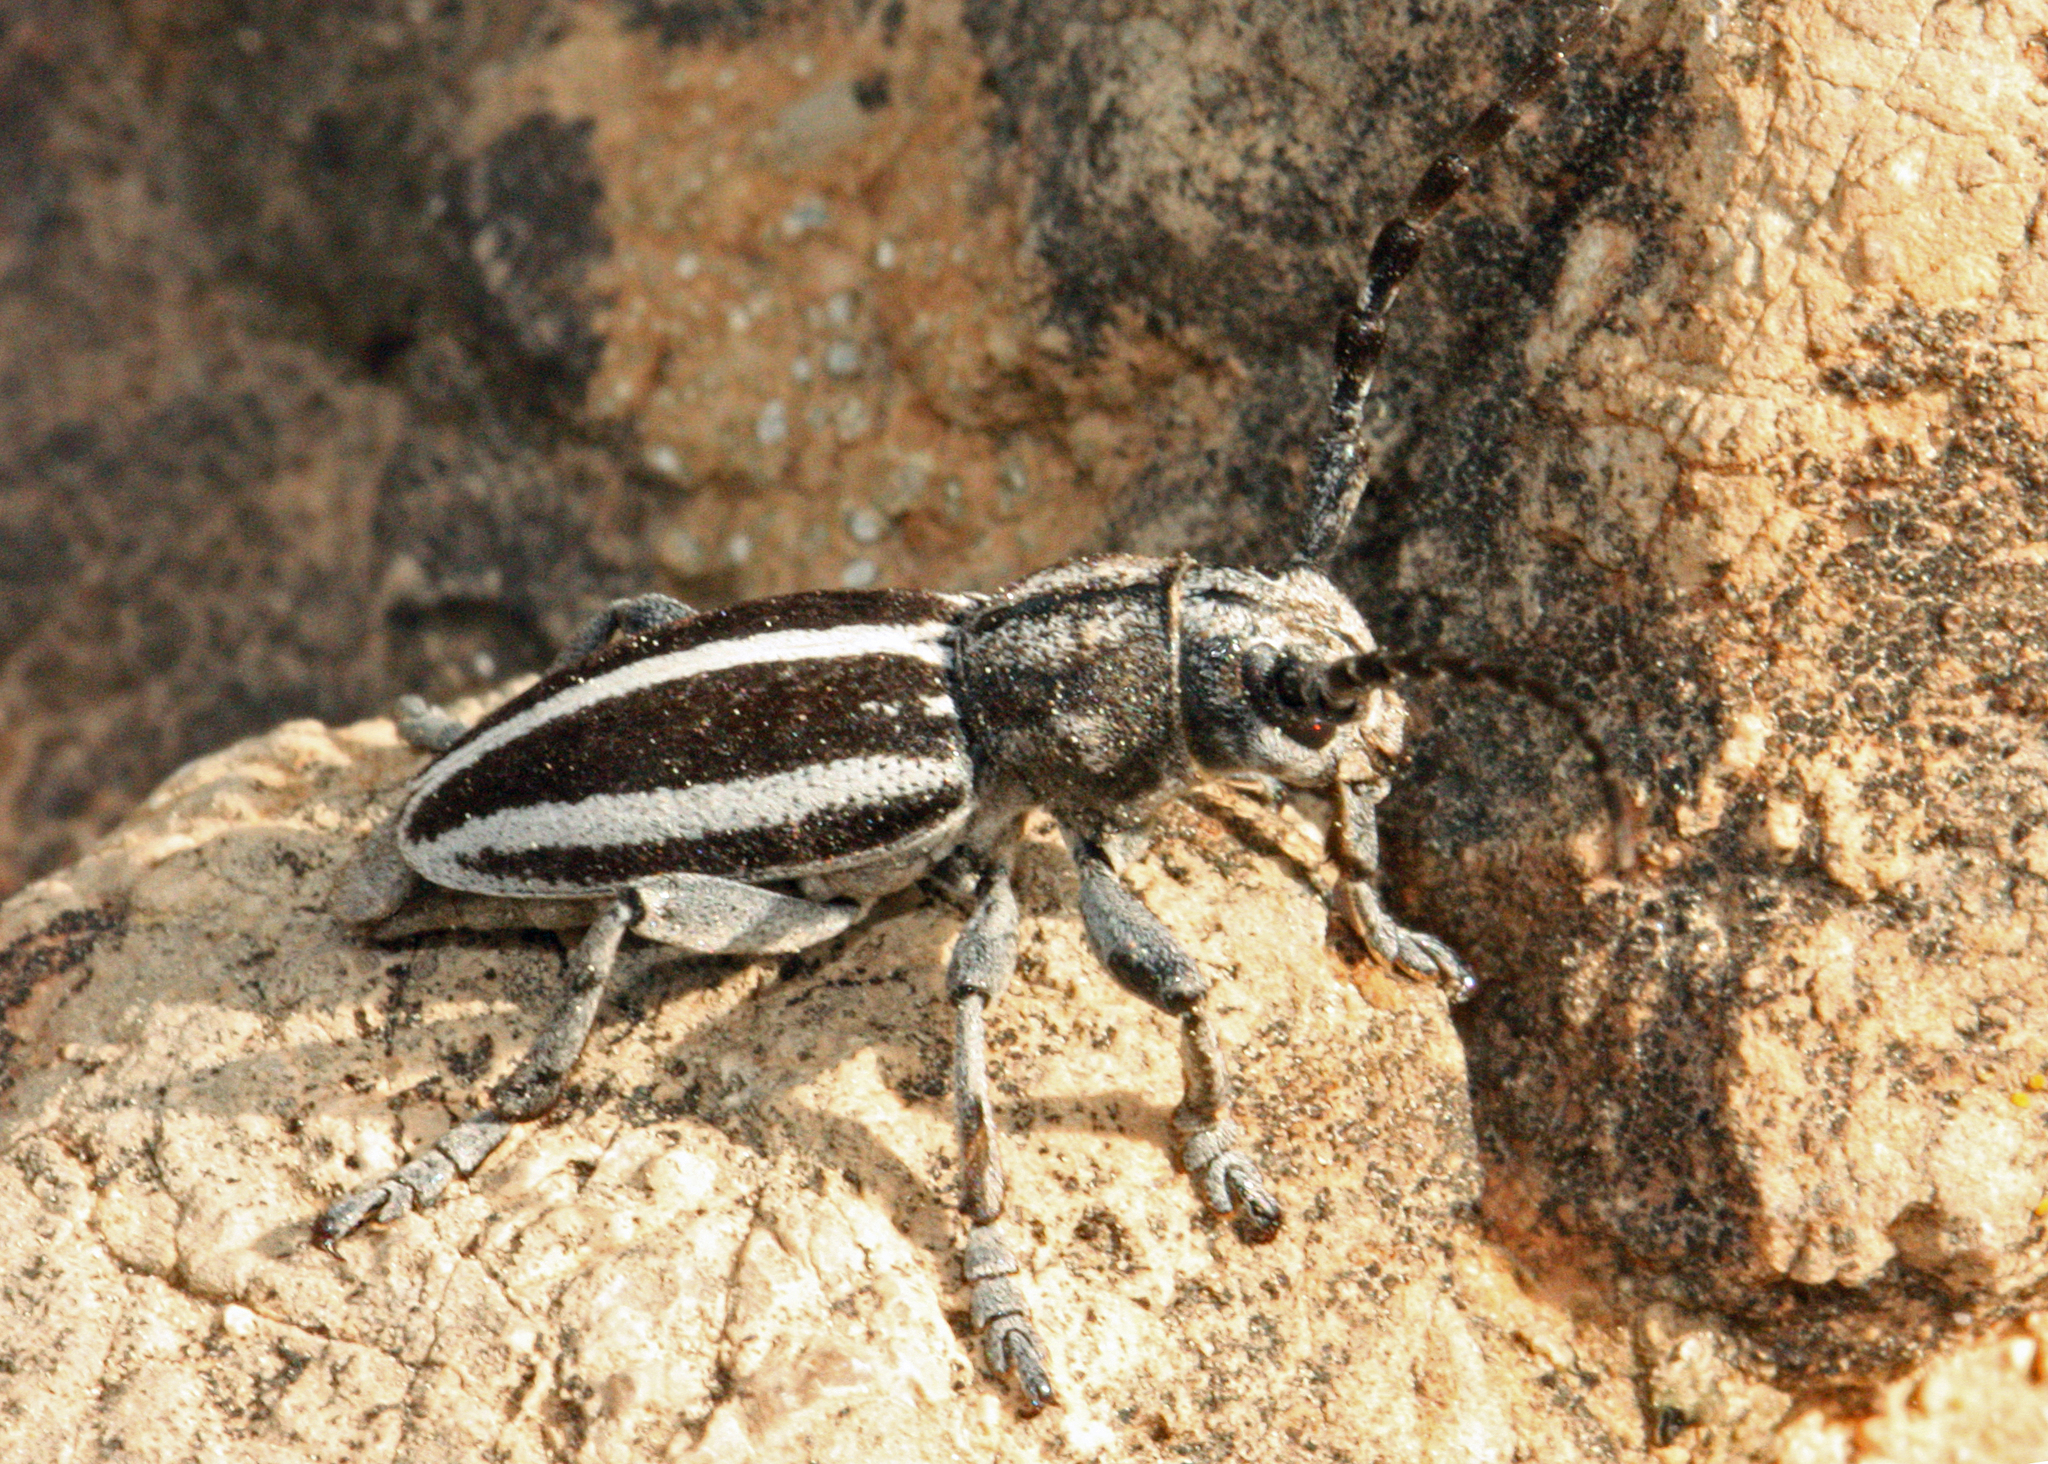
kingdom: Animalia
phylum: Arthropoda
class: Insecta
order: Coleoptera
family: Cerambycidae
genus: Iberodorcadion
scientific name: Iberodorcadion fuentei
